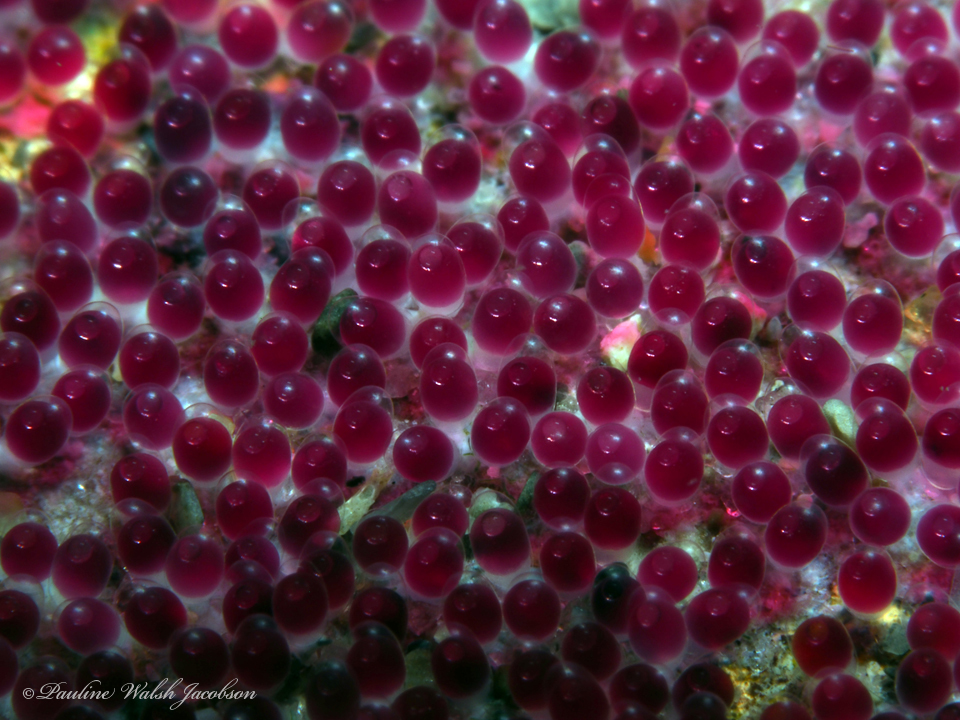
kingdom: Animalia
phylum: Chordata
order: Perciformes
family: Pomacentridae
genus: Abudefduf
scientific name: Abudefduf saxatilis
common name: Sergeant major
